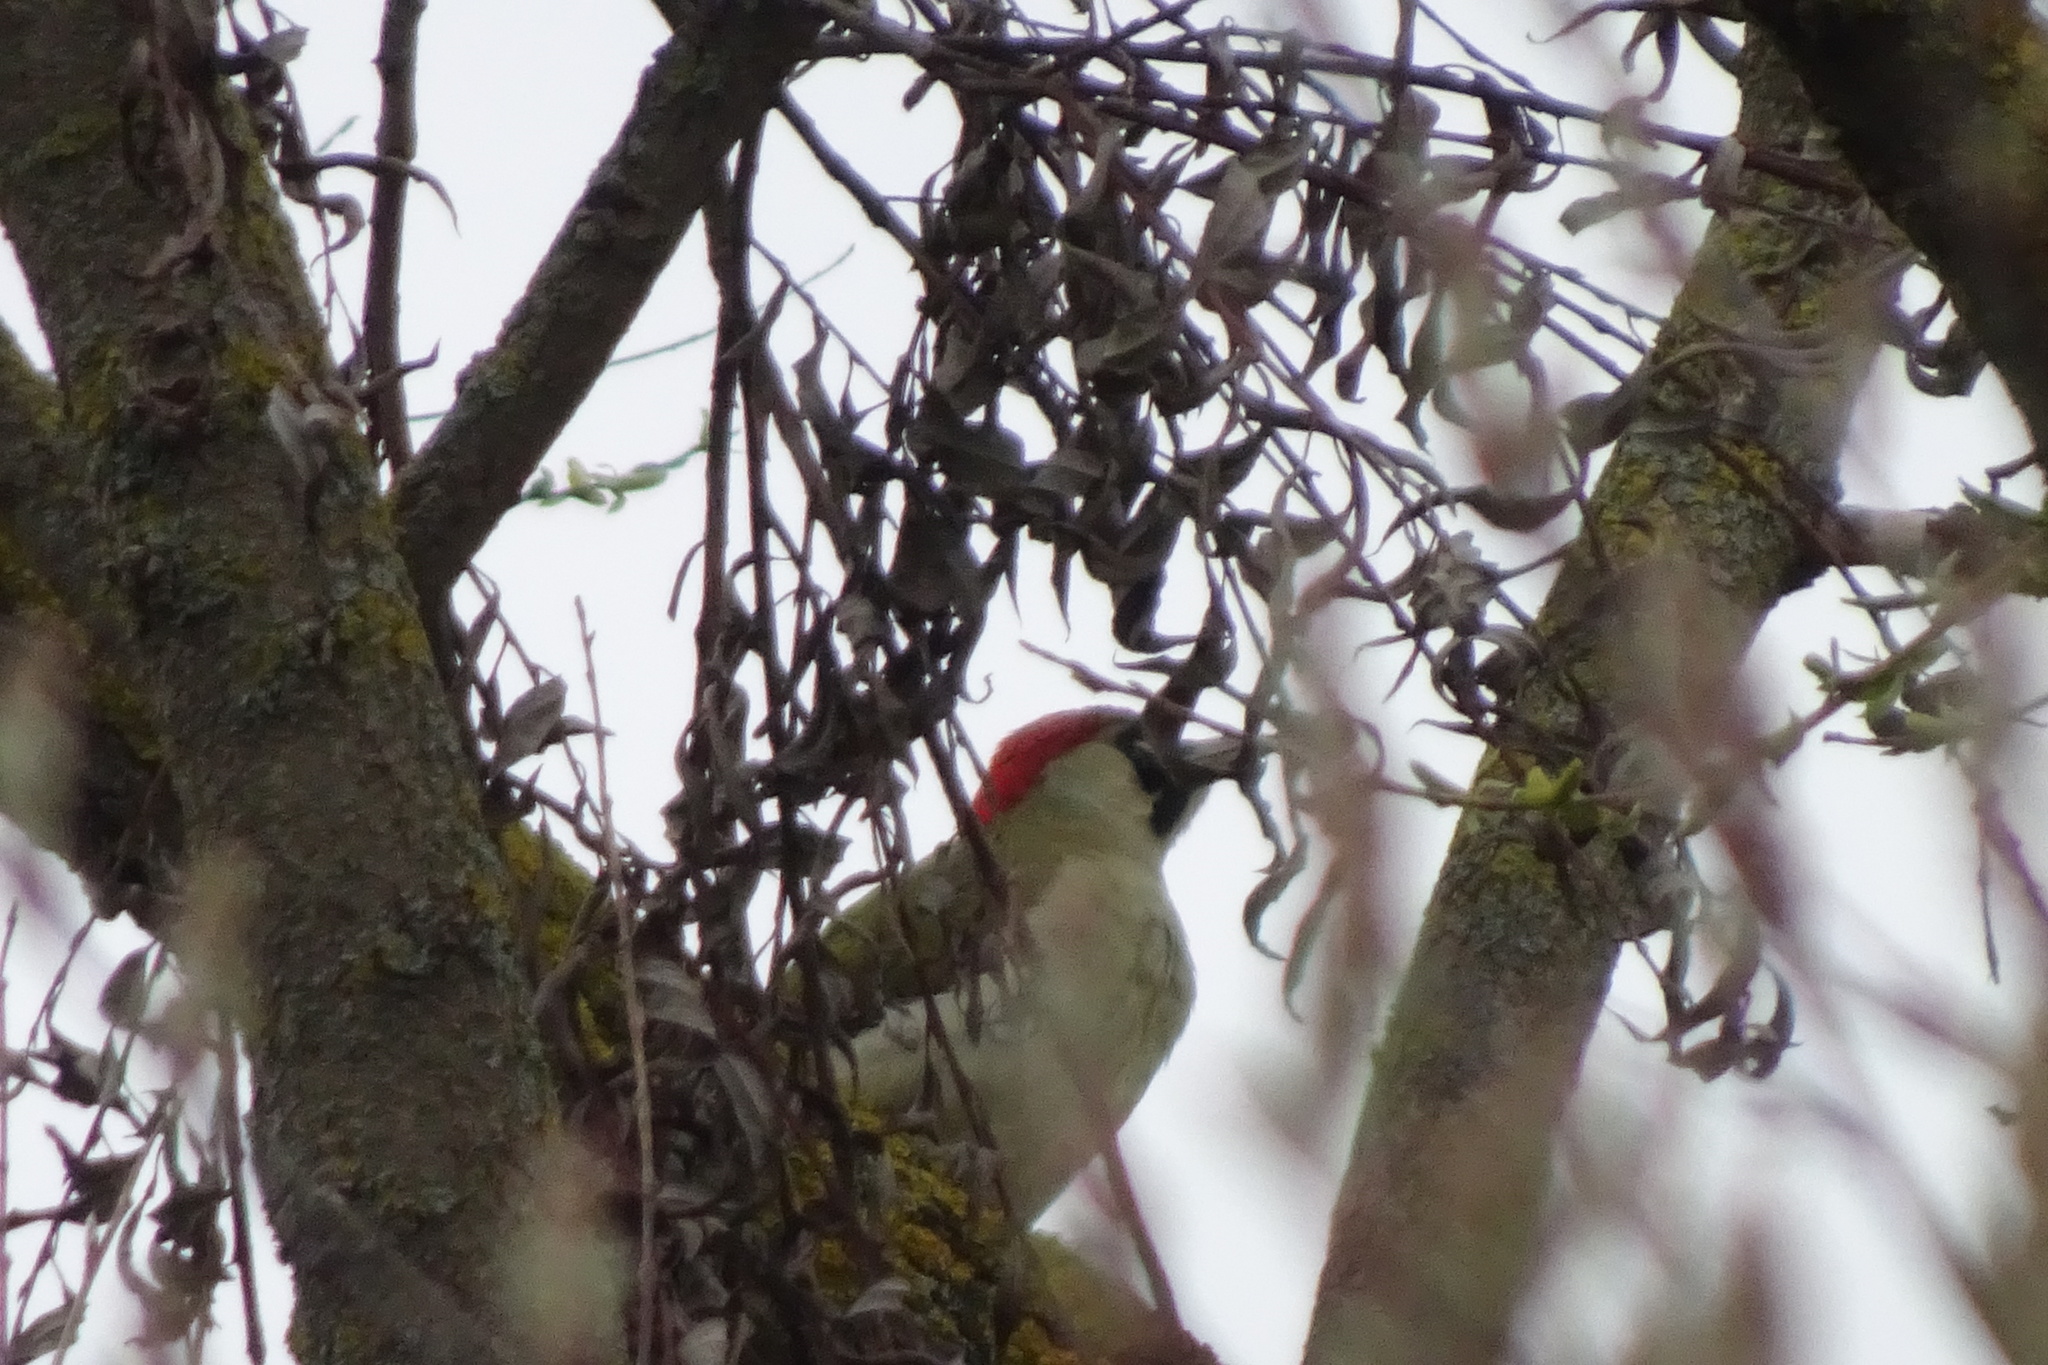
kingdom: Animalia
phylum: Chordata
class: Aves
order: Piciformes
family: Picidae
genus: Picus
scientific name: Picus viridis
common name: European green woodpecker
